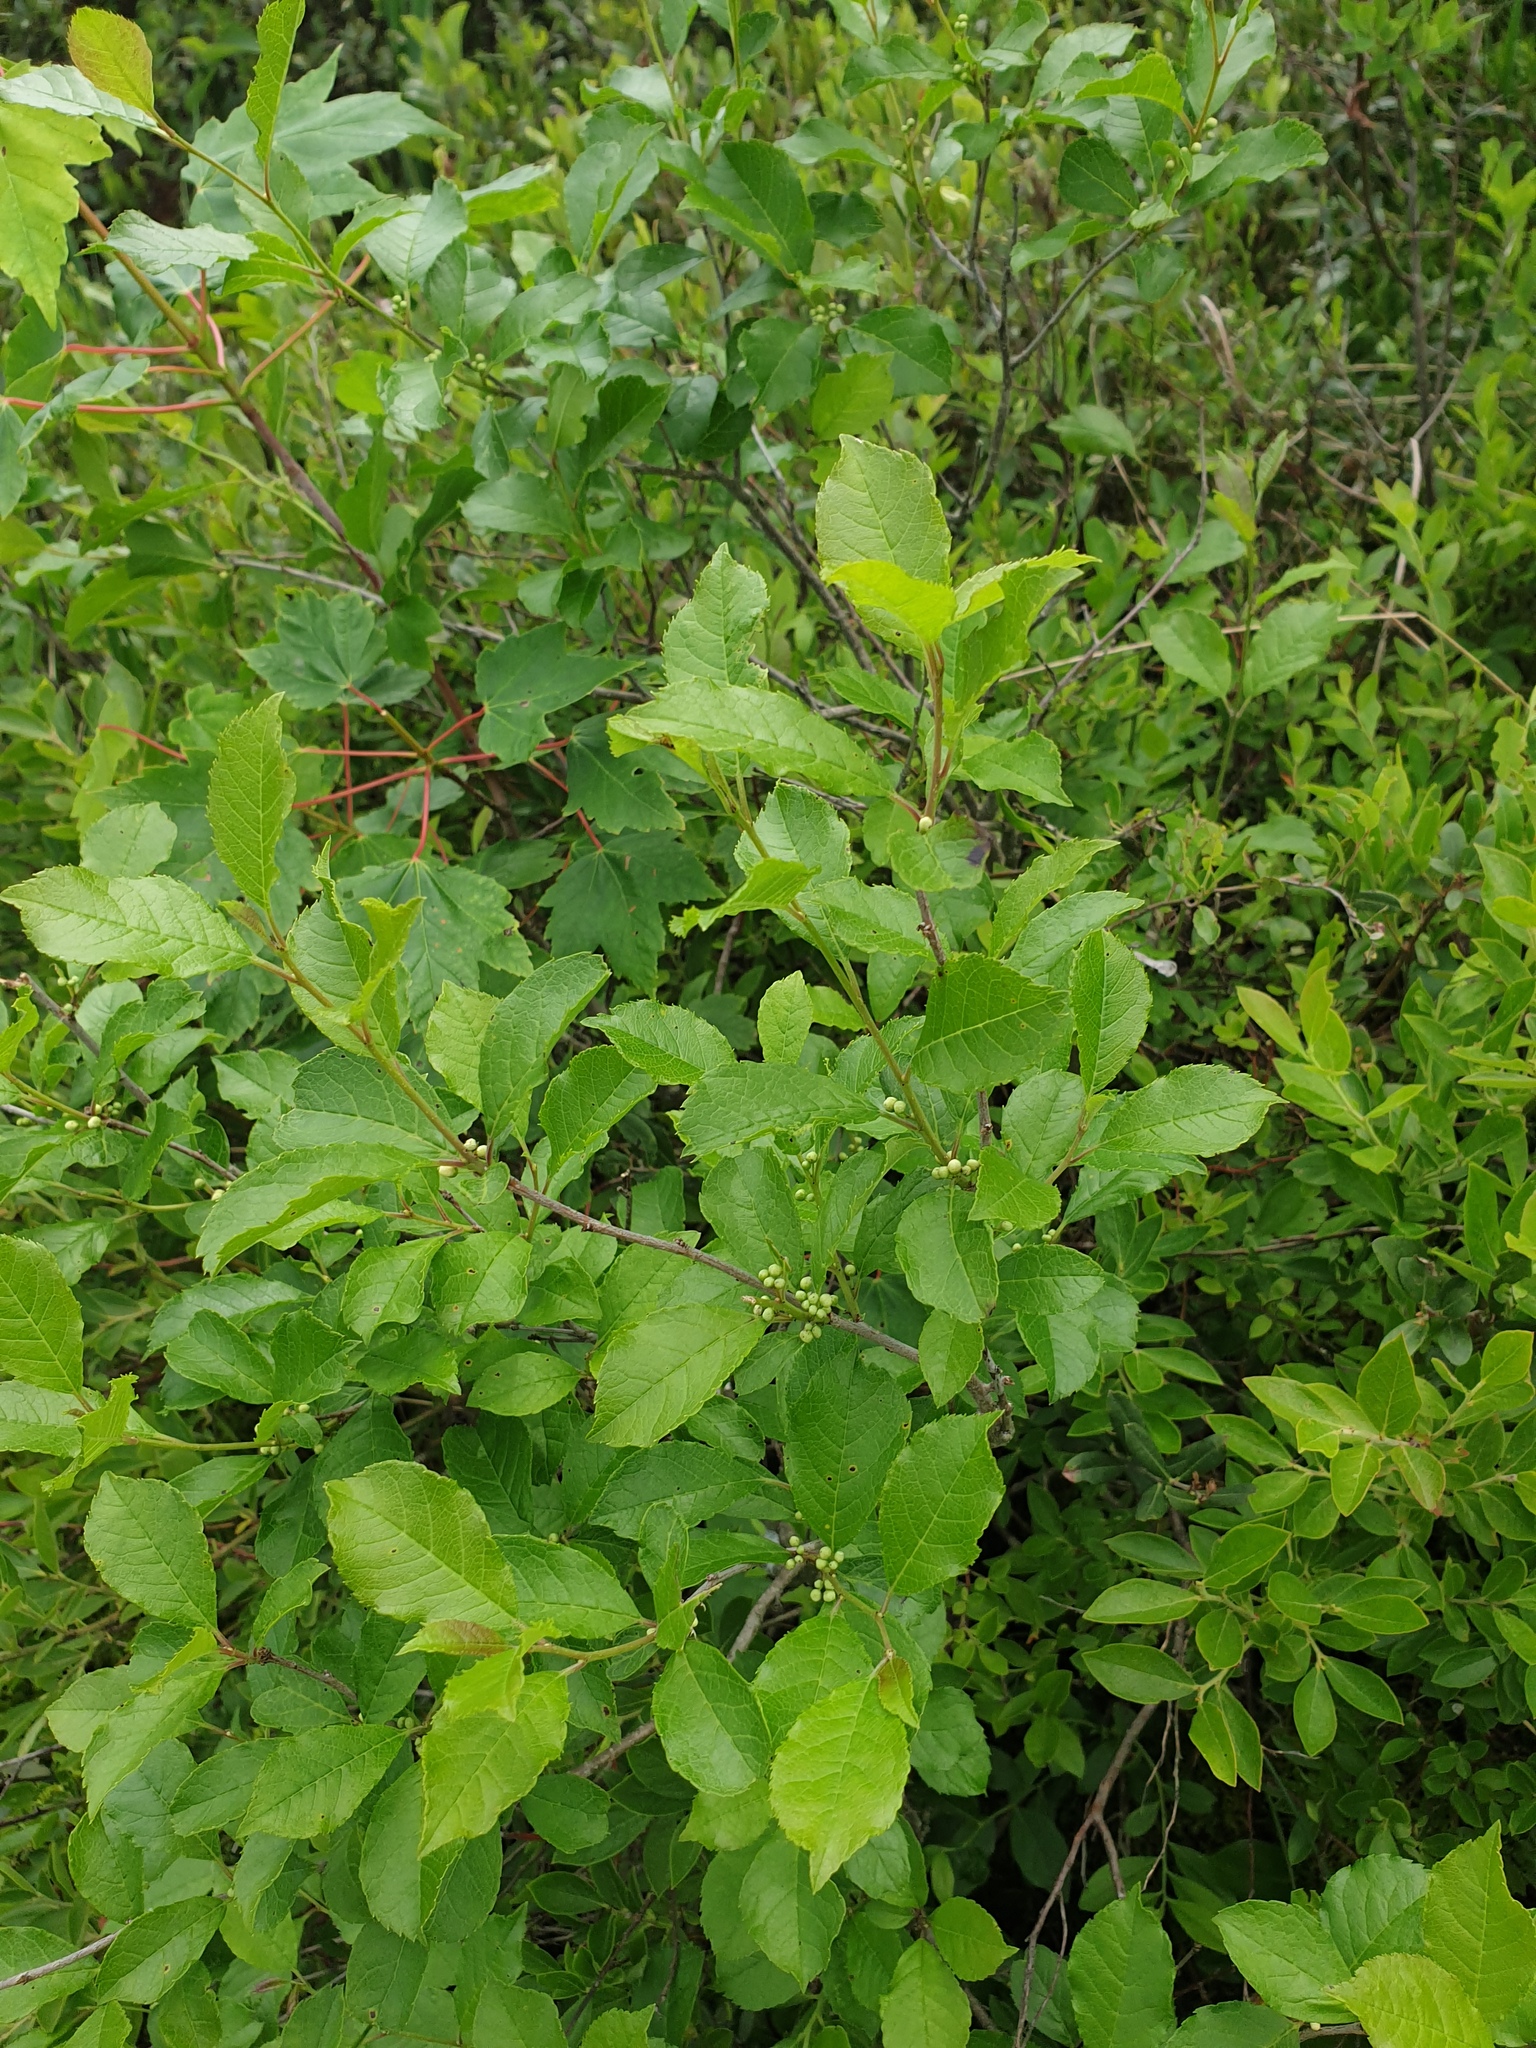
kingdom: Plantae
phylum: Tracheophyta
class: Magnoliopsida
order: Aquifoliales
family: Aquifoliaceae
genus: Ilex
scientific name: Ilex verticillata
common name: Virginia winterberry
